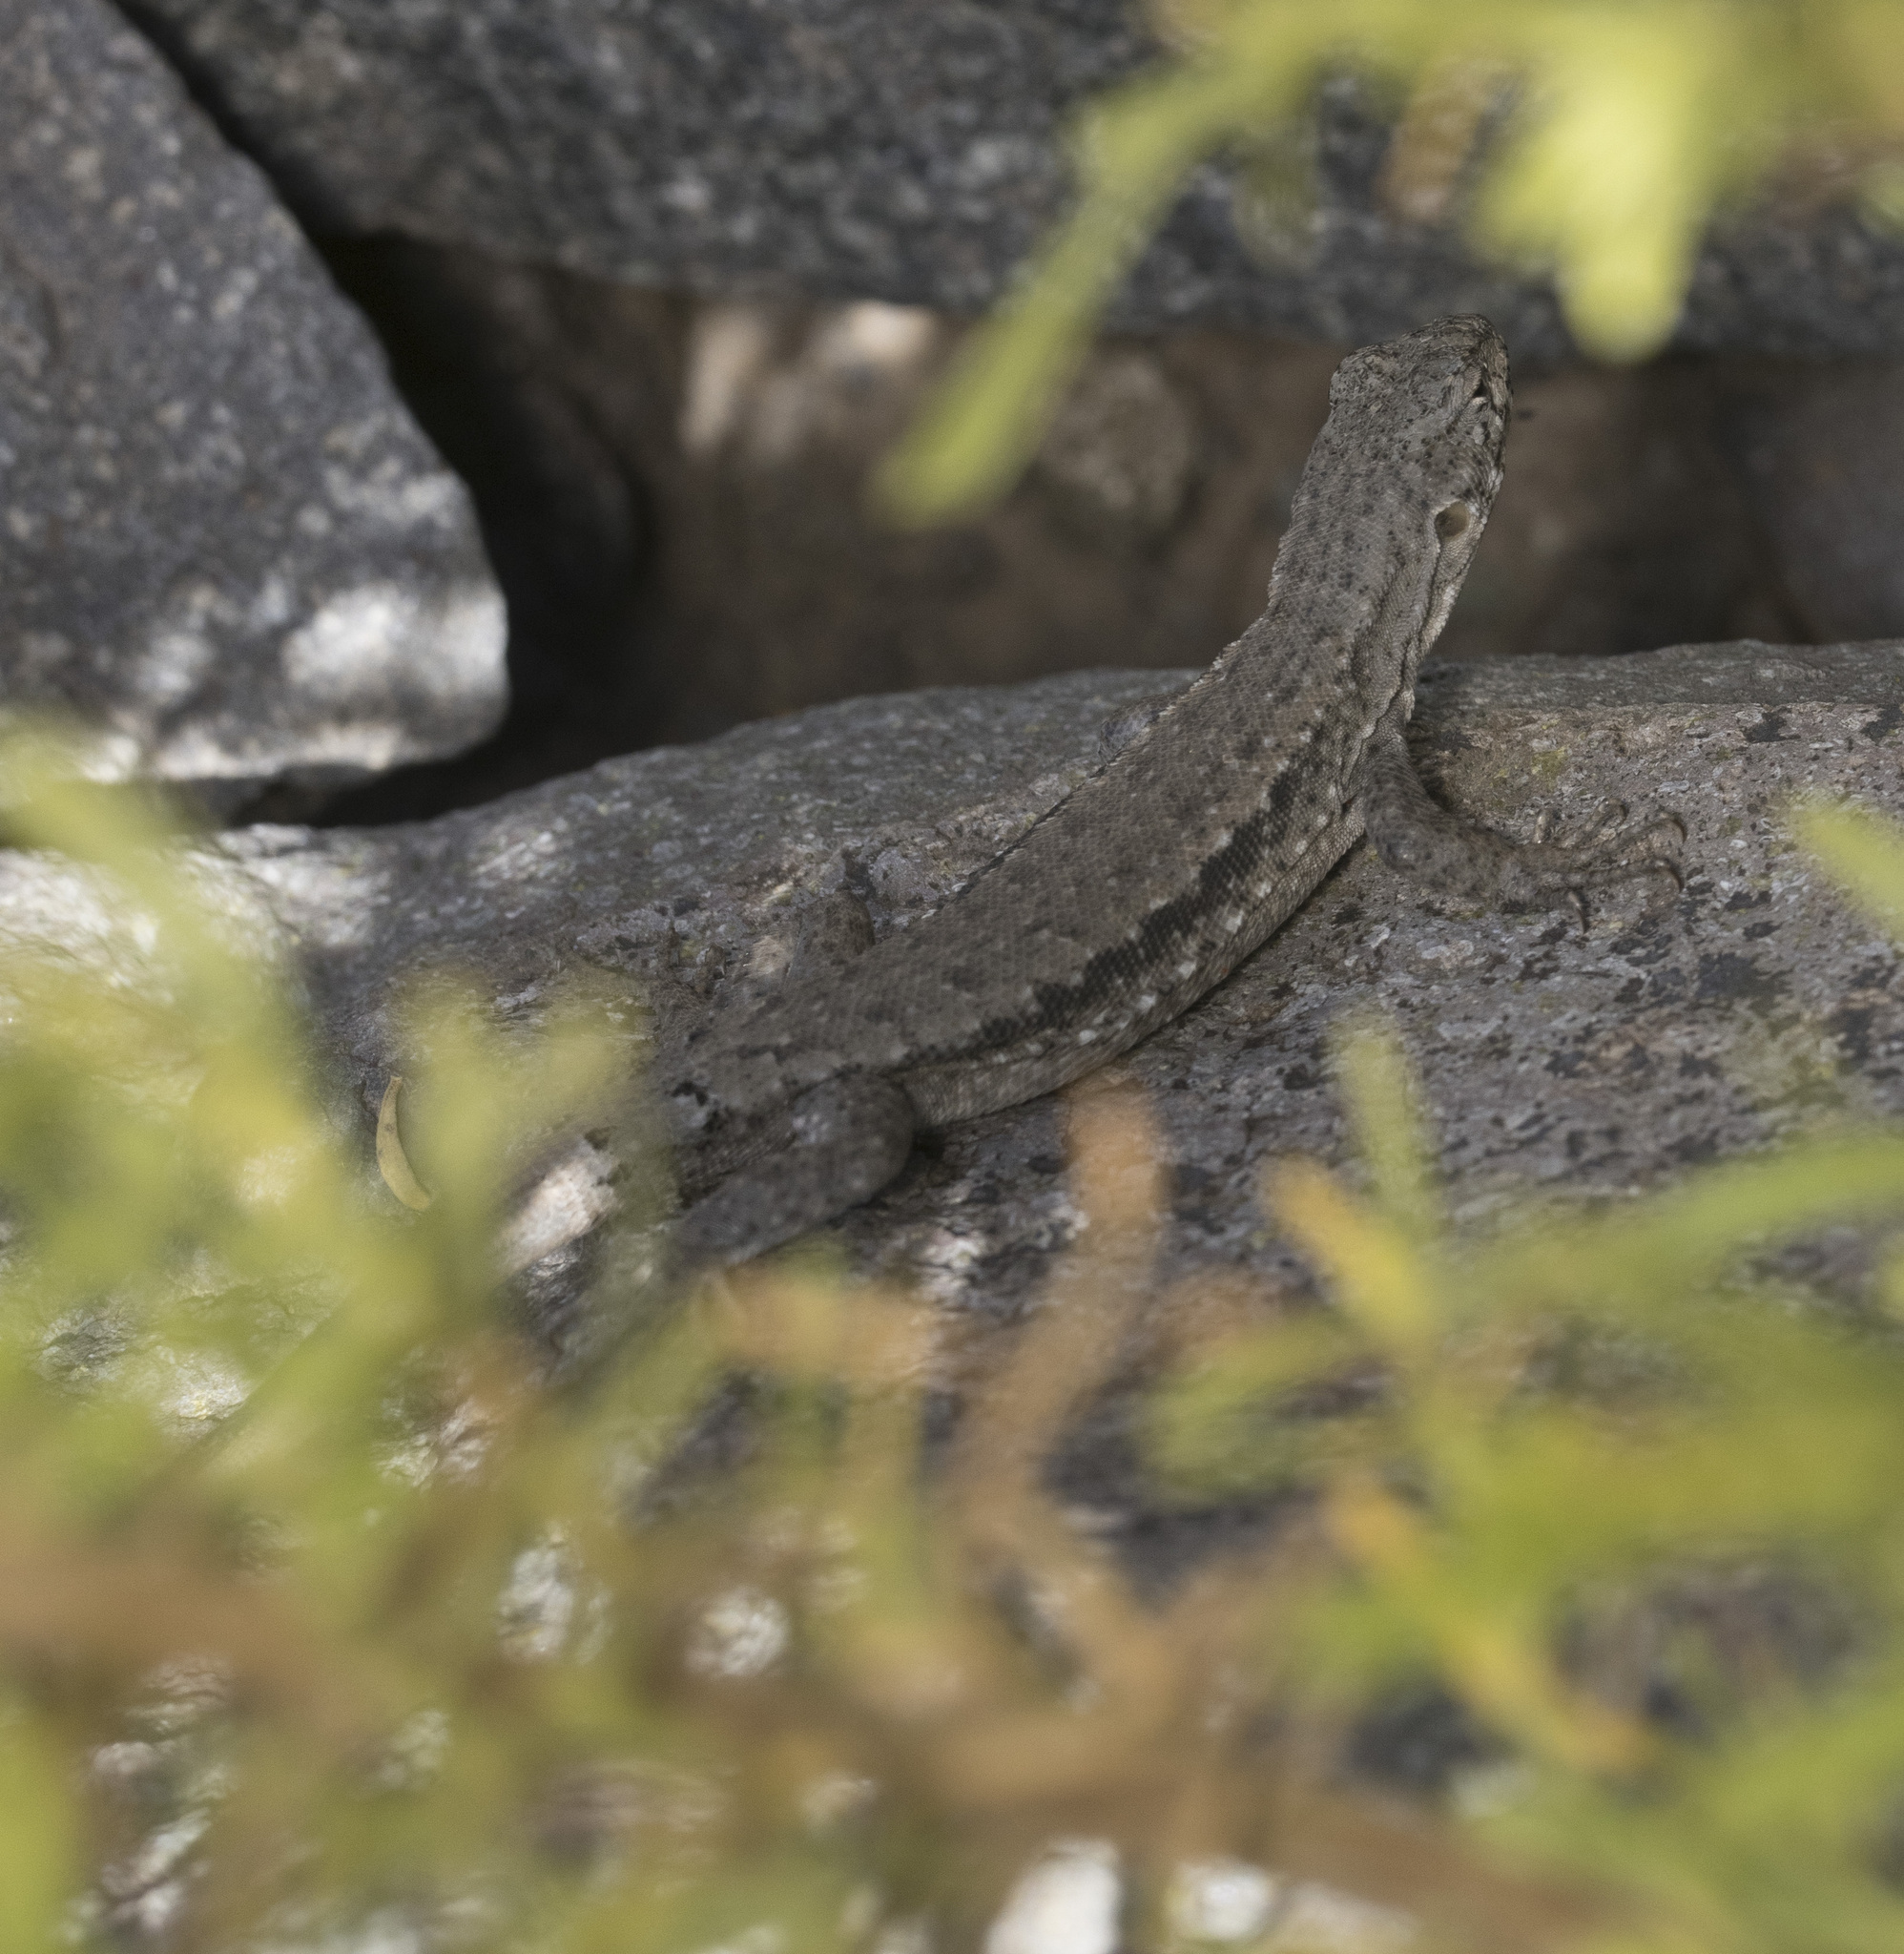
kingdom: Animalia
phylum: Chordata
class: Squamata
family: Liolaemidae
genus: Liolaemus
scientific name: Liolaemus monticola
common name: Peak tree iguana
